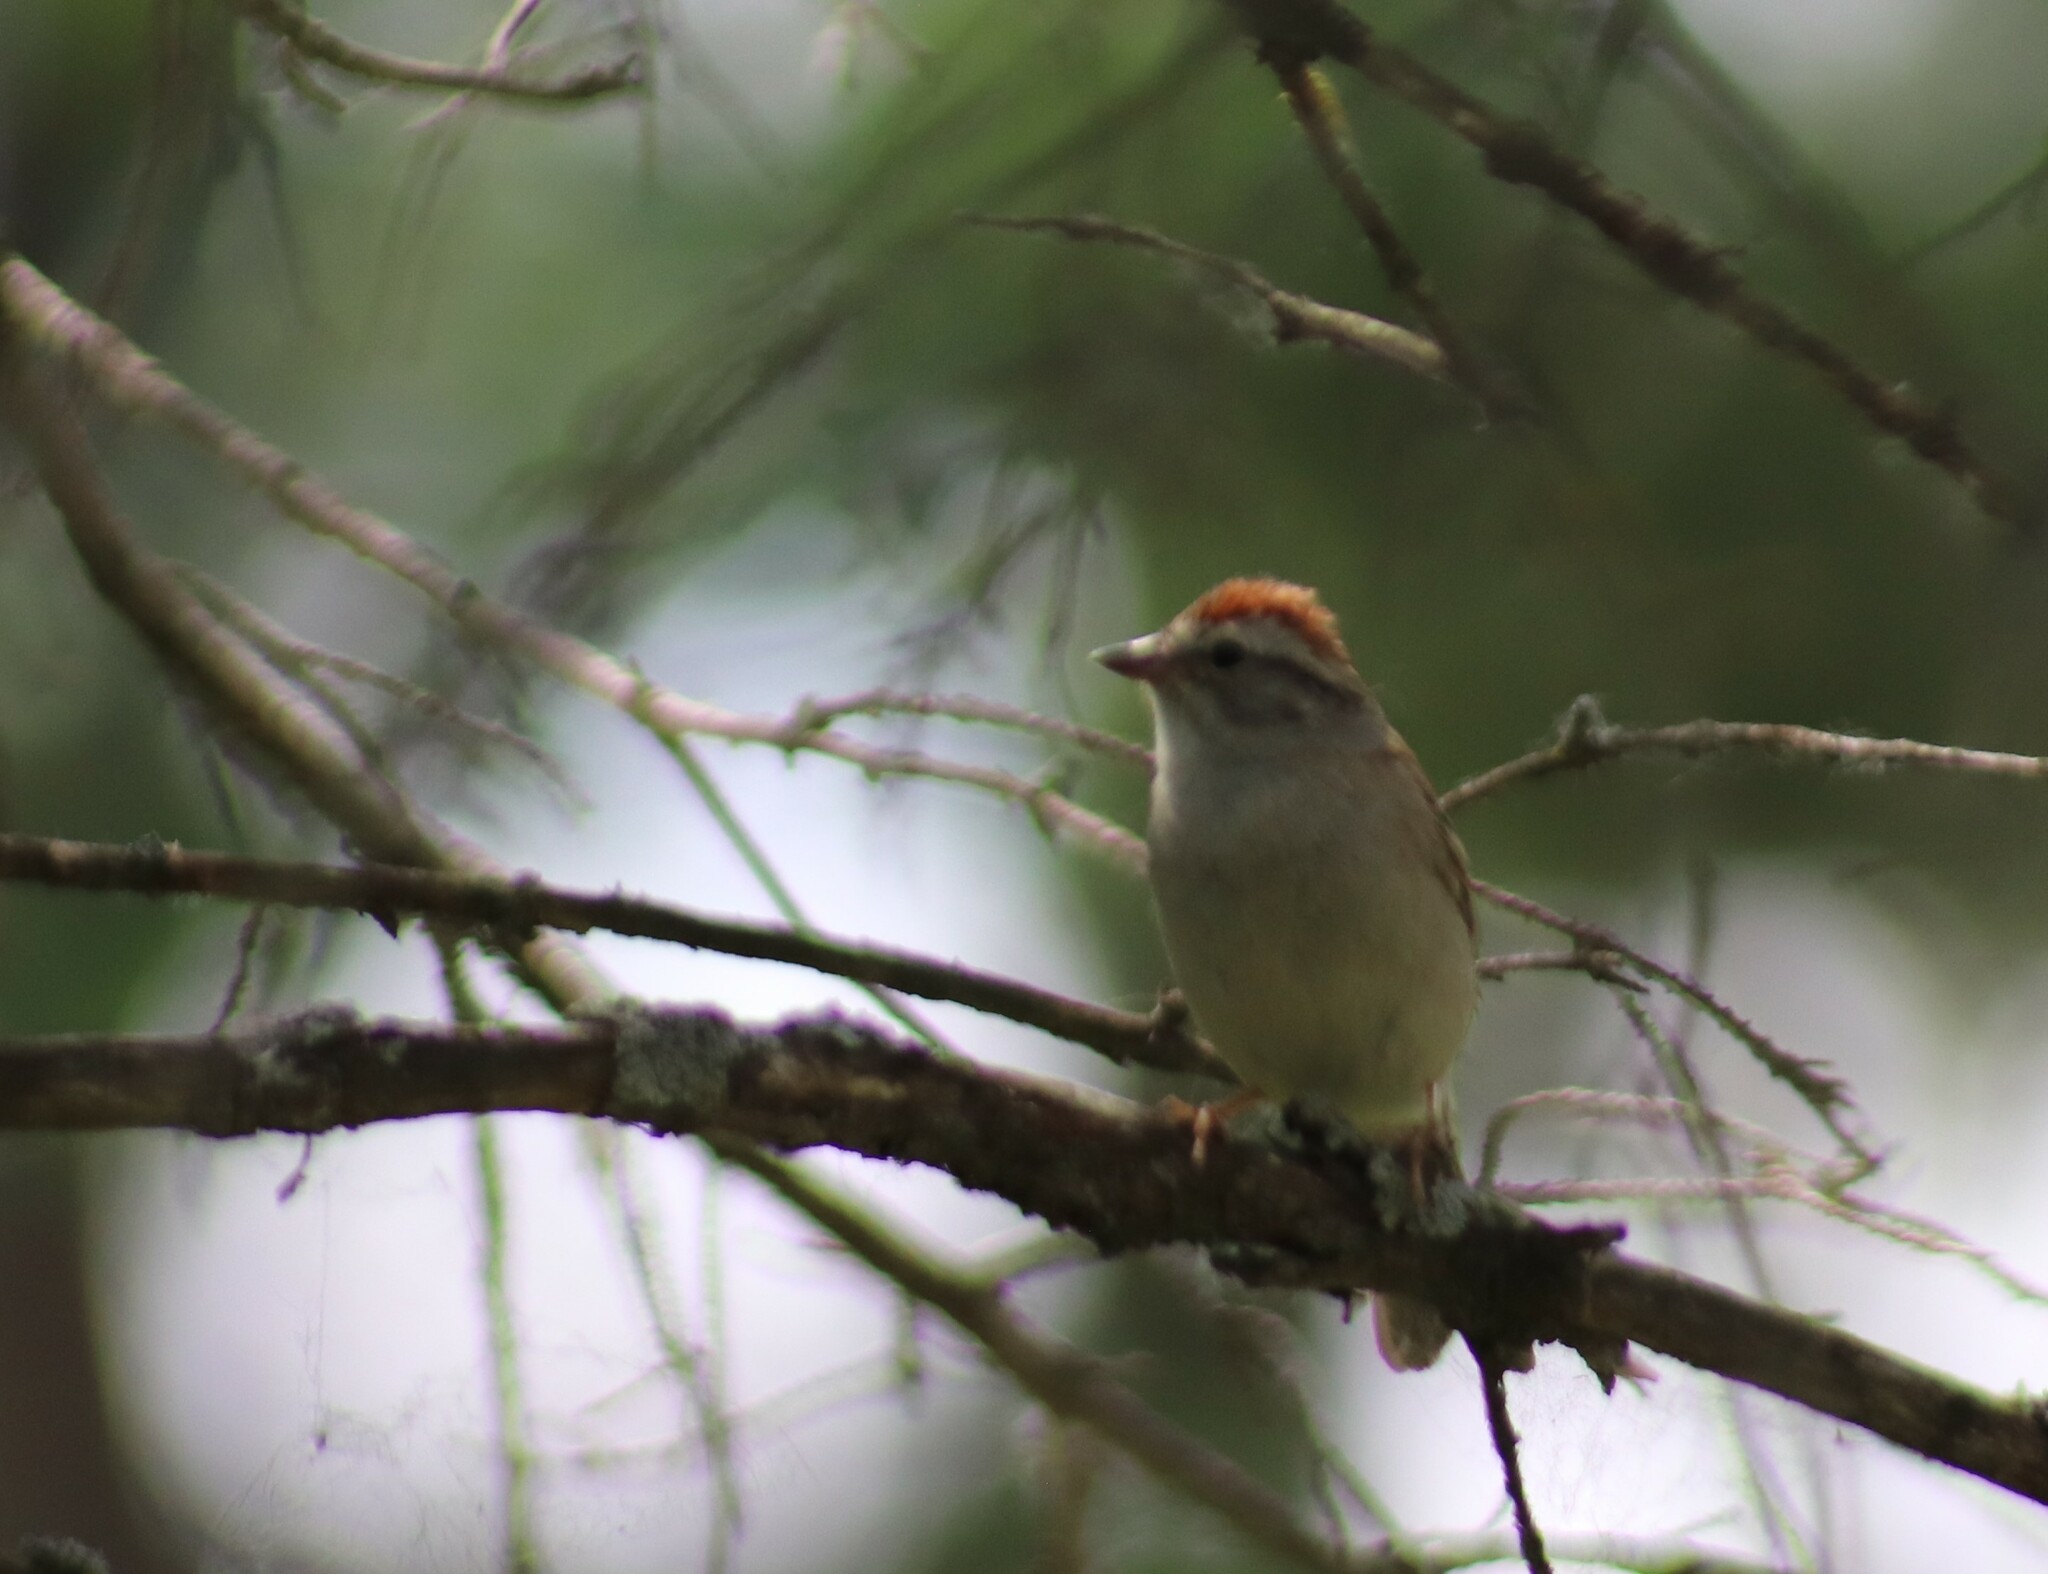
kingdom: Animalia
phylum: Chordata
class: Aves
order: Passeriformes
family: Passerellidae
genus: Spizella
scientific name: Spizella passerina
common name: Chipping sparrow
